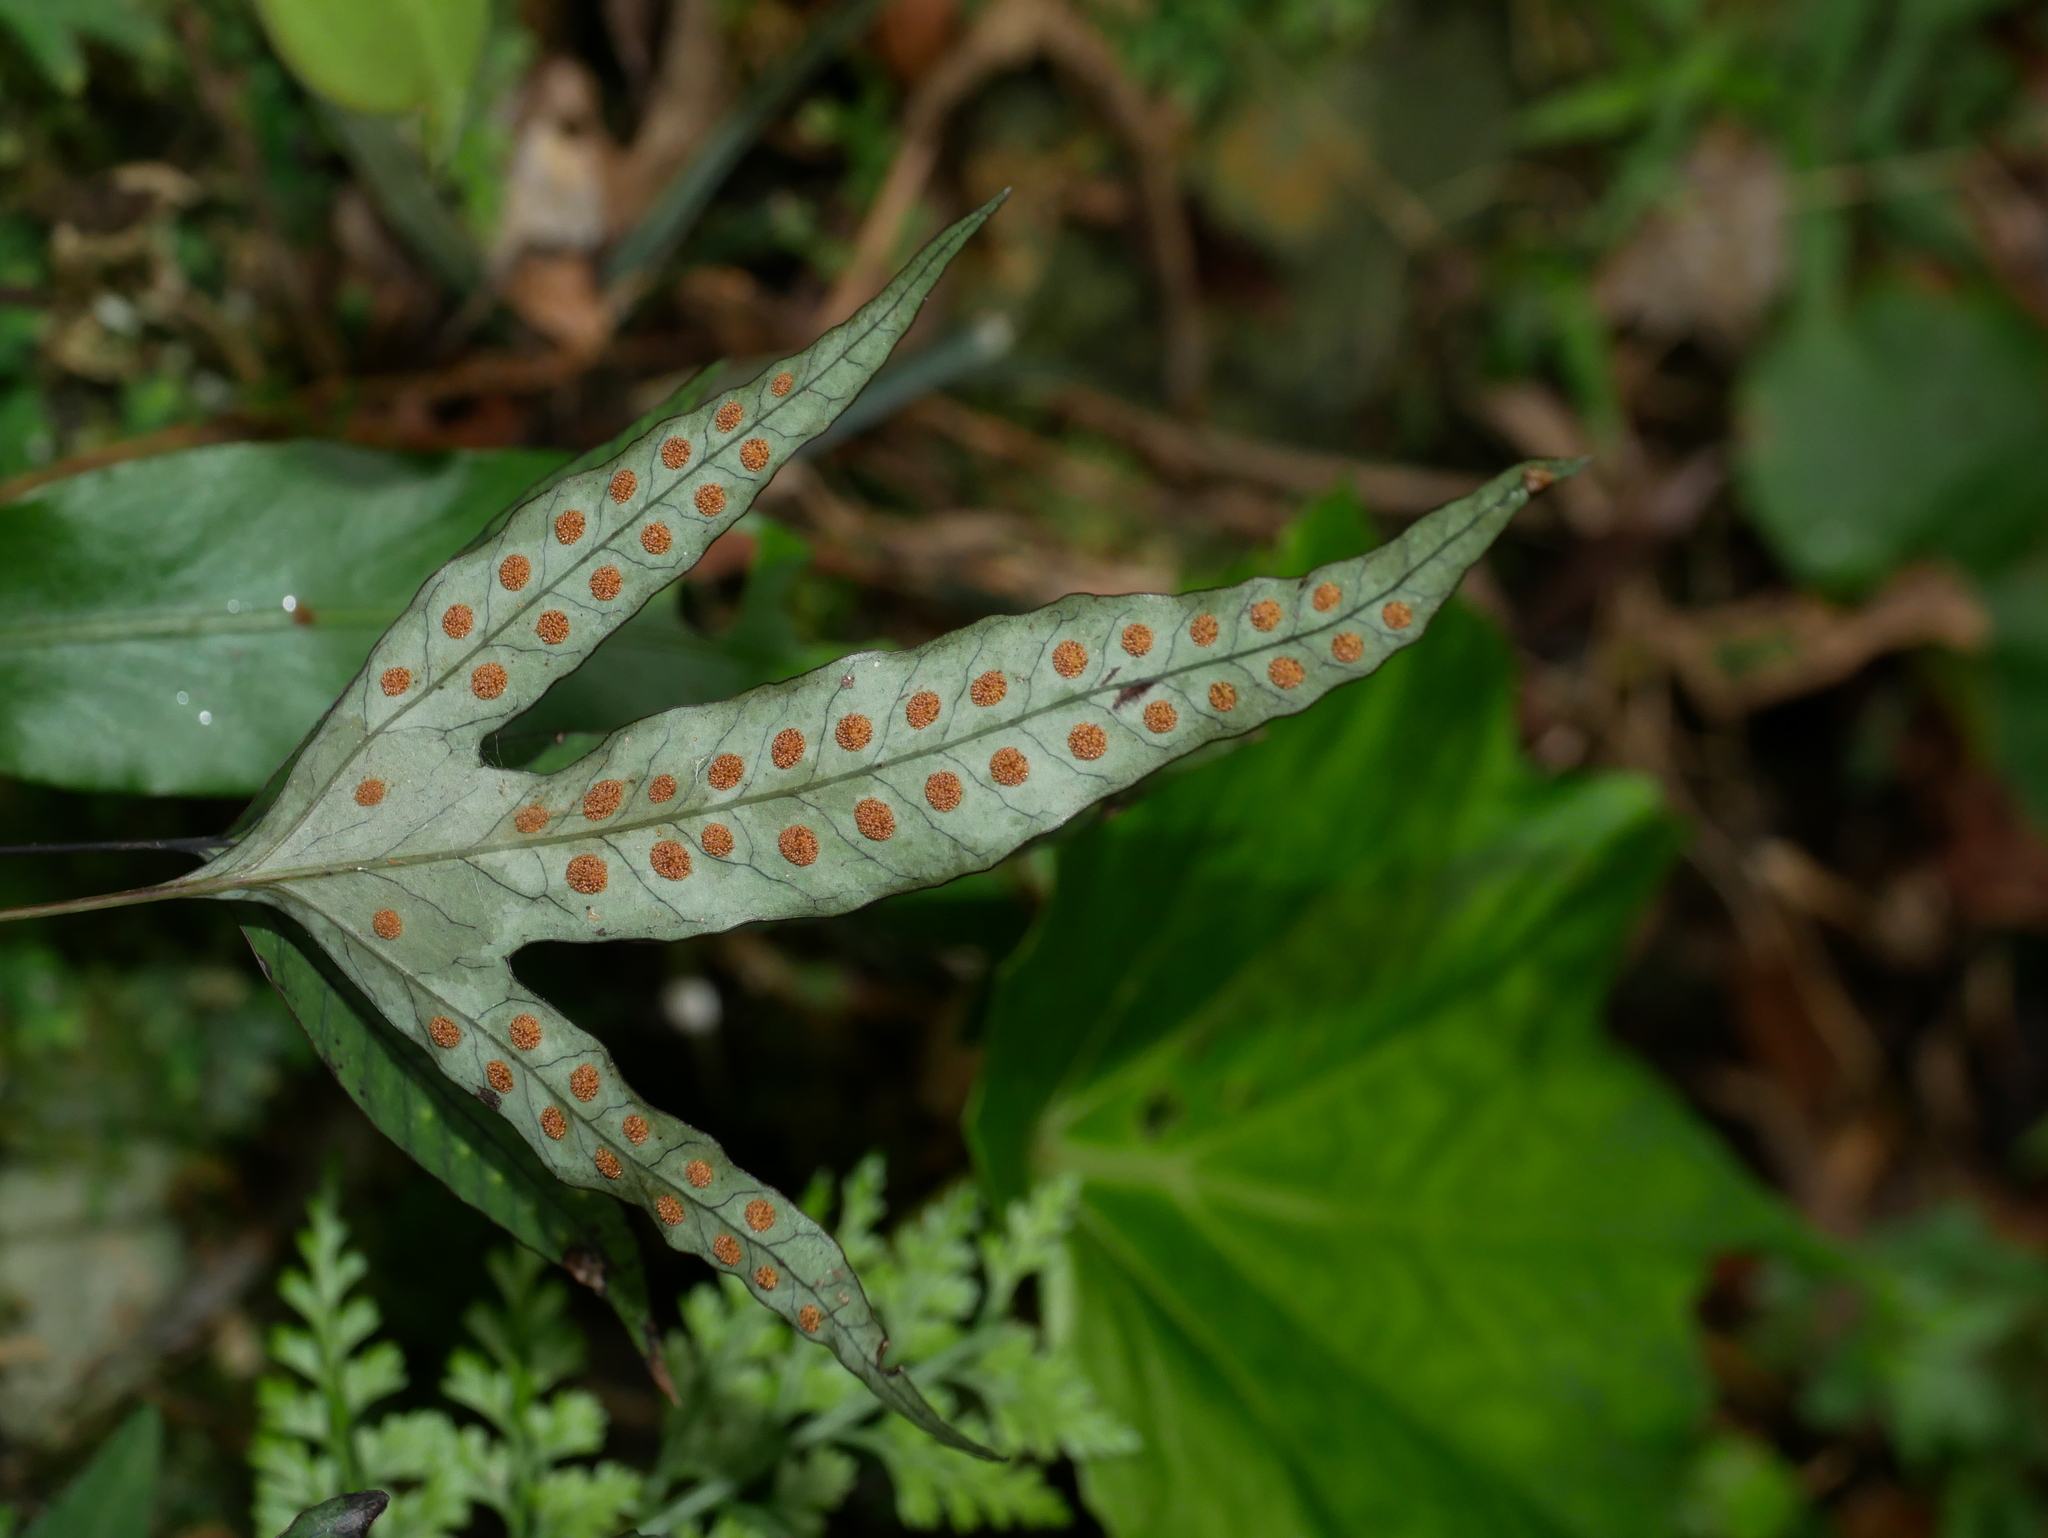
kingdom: Plantae
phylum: Tracheophyta
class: Polypodiopsida
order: Polypodiales
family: Polypodiaceae
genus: Selliguea
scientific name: Selliguea hastata
